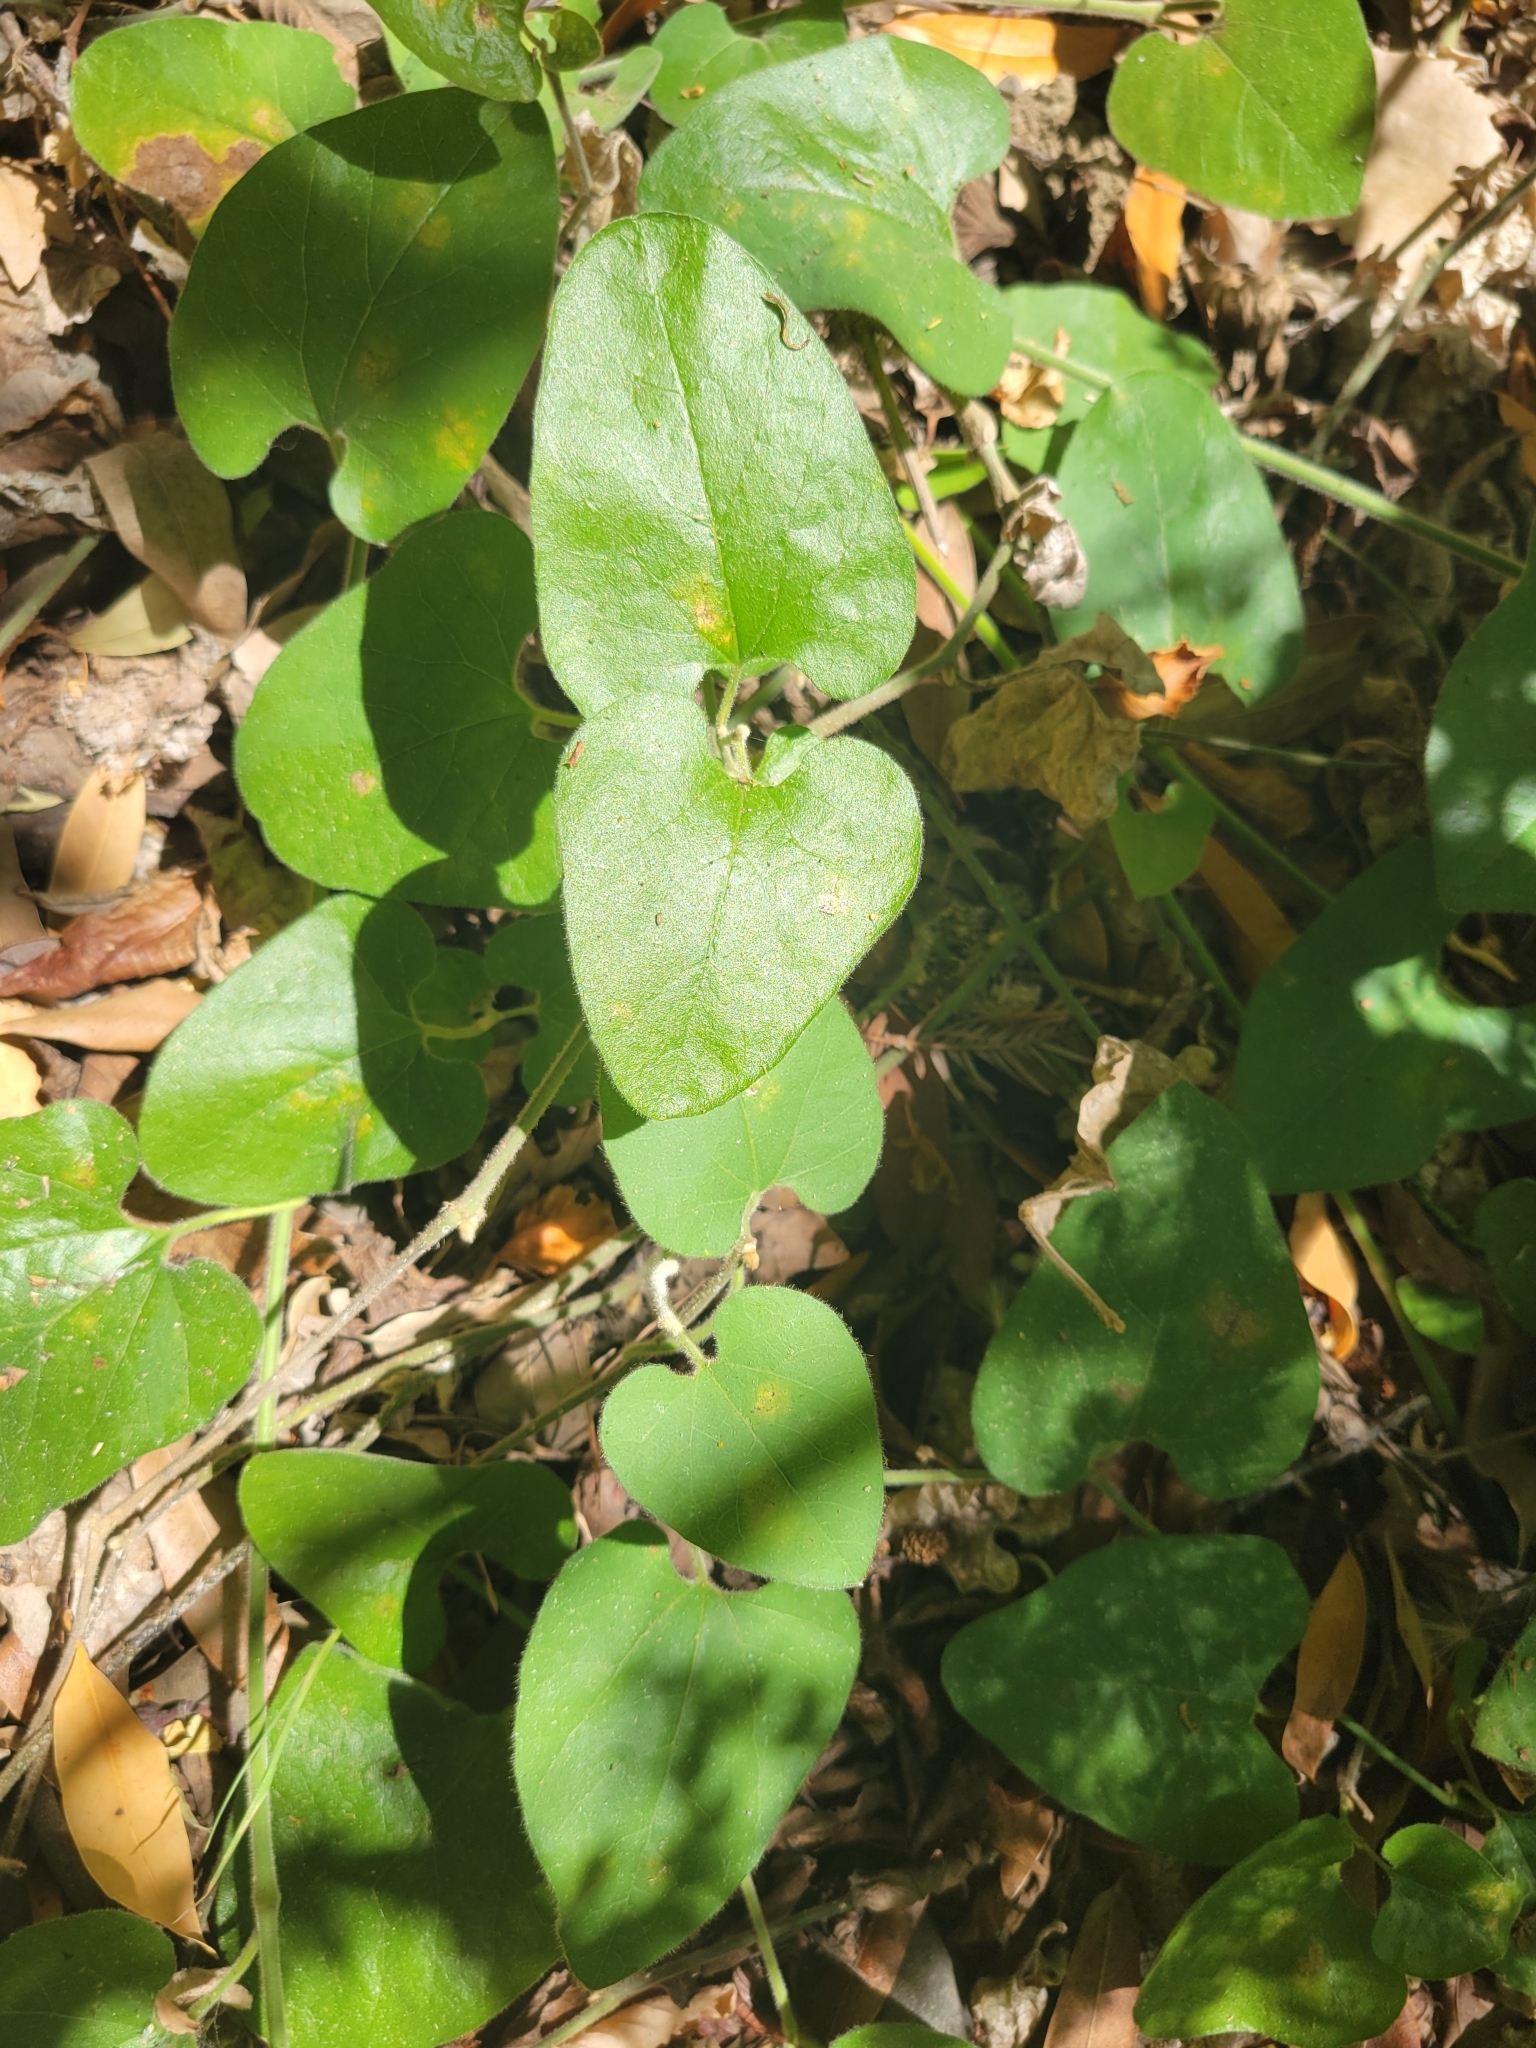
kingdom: Plantae
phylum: Tracheophyta
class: Magnoliopsida
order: Piperales
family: Aristolochiaceae
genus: Isotrema
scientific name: Isotrema californicum
